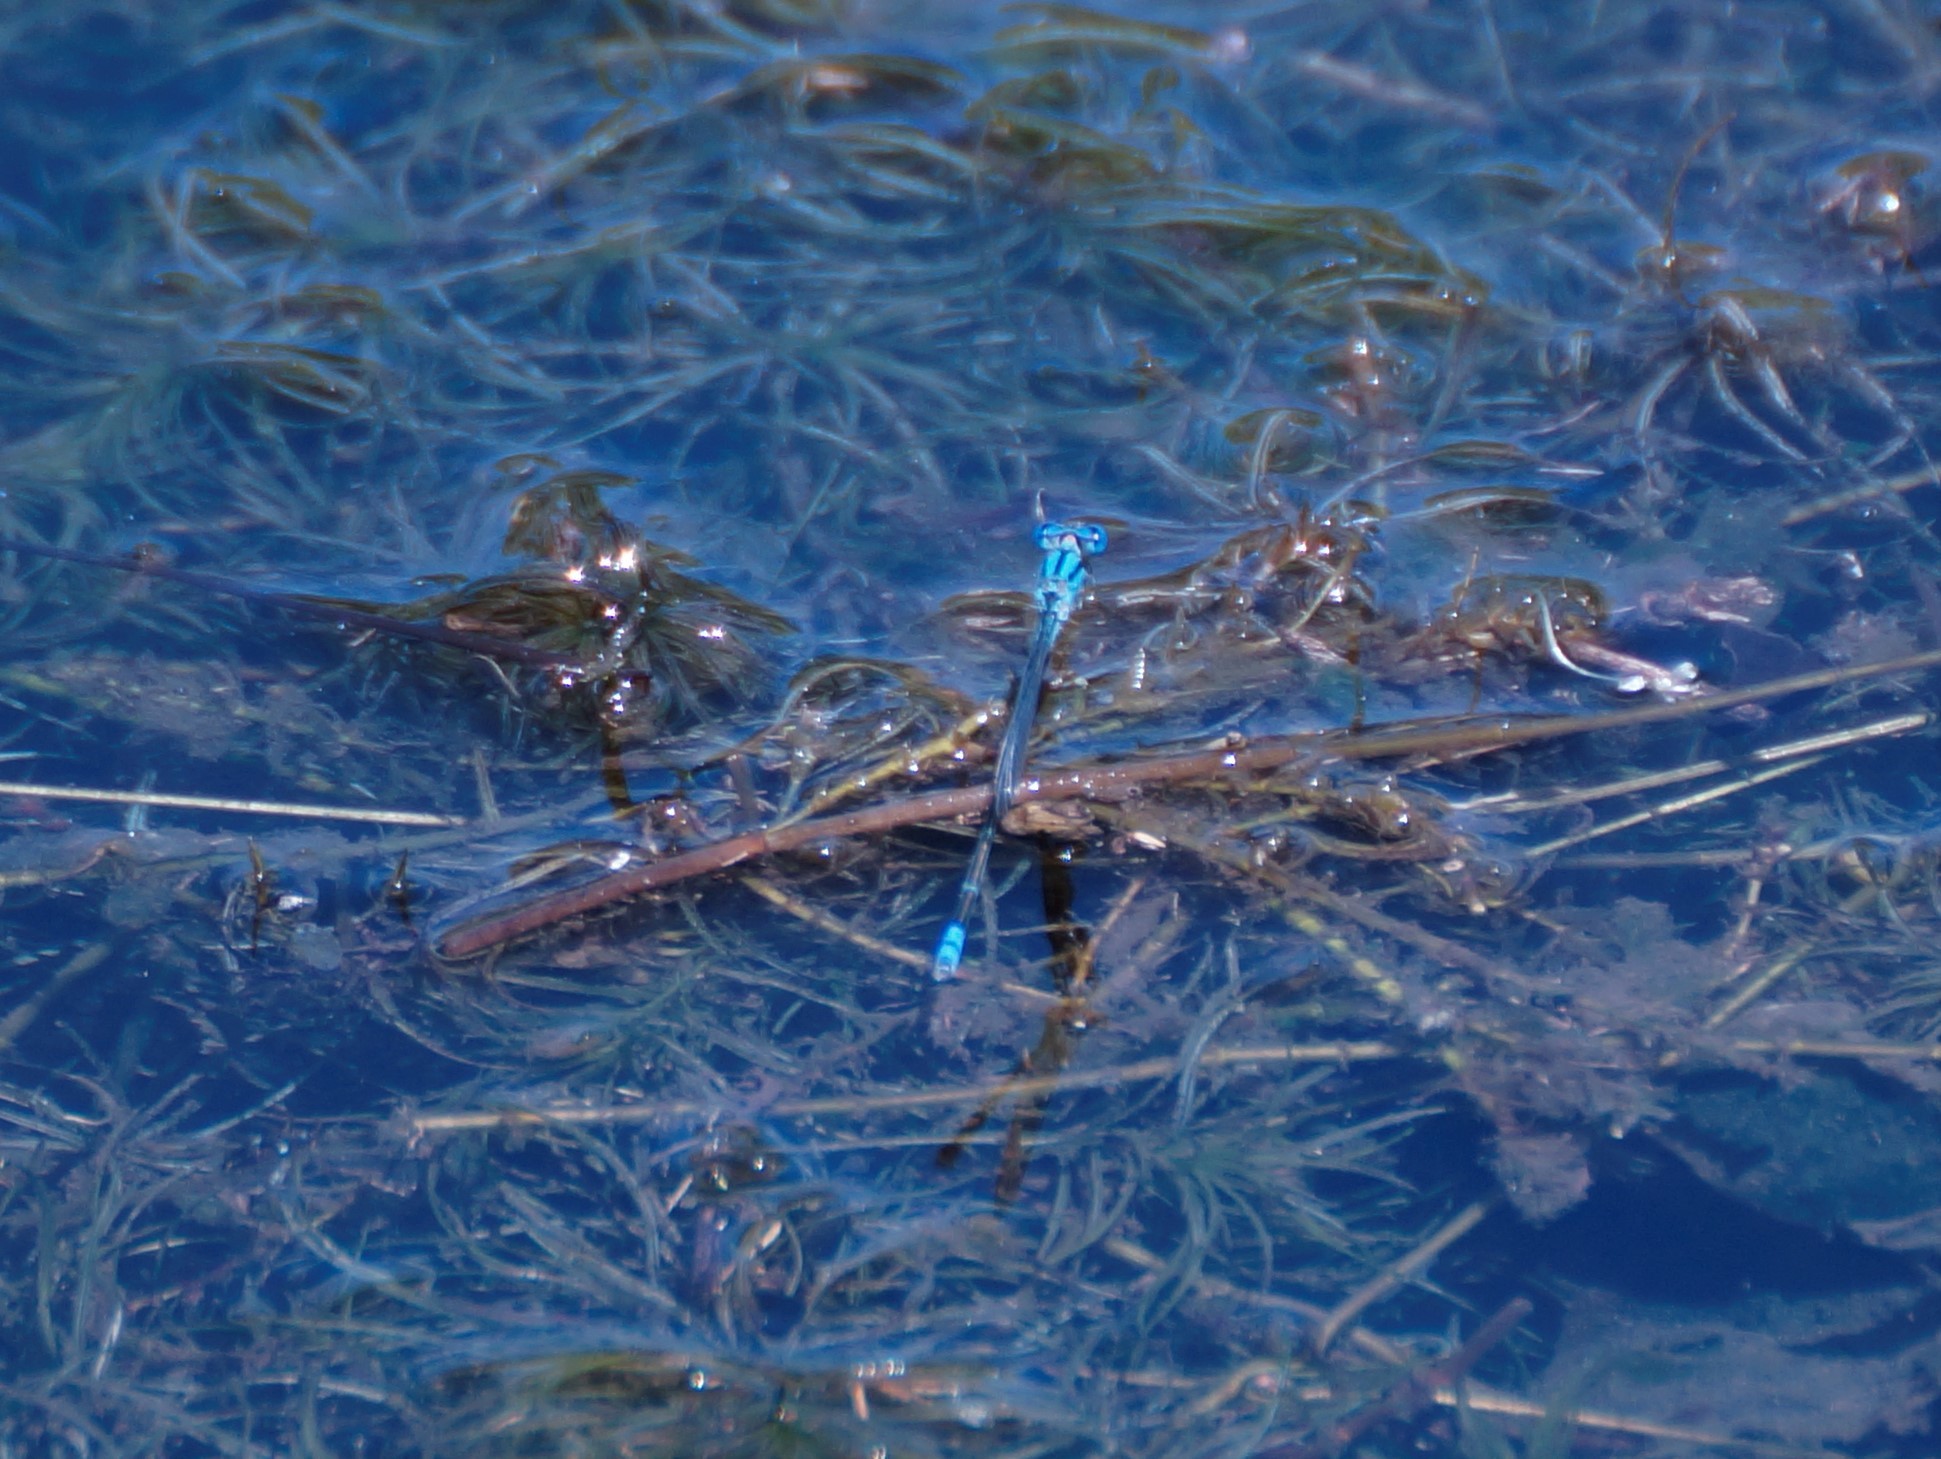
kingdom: Animalia
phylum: Arthropoda
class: Insecta
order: Odonata
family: Coenagrionidae
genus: Pseudagrion
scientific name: Pseudagrion microcephalum
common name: Blue riverdamsel
